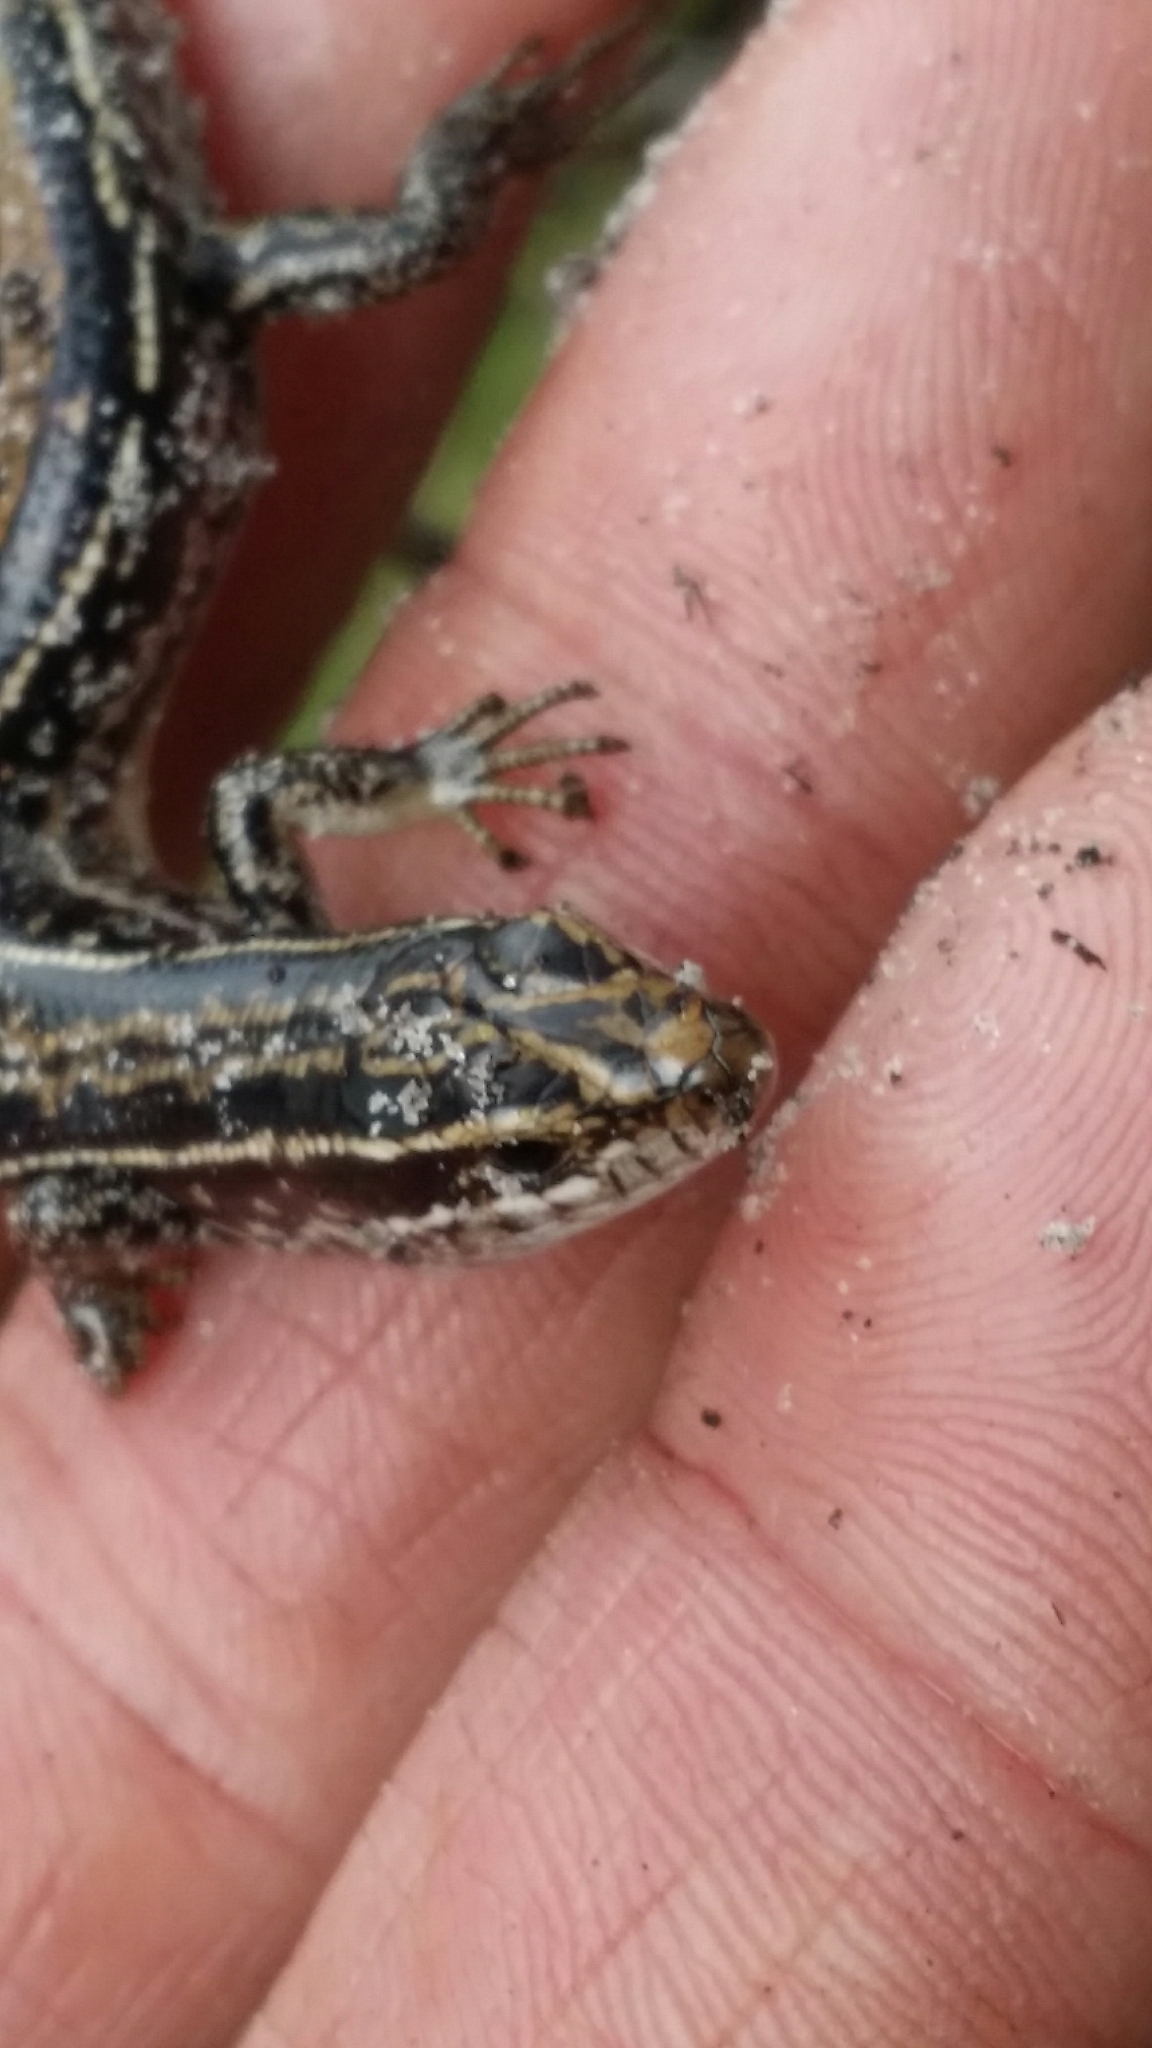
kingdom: Animalia
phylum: Chordata
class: Squamata
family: Scincidae
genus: Ctenotus
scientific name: Ctenotus catenifer
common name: Chain-striped south-west ctenotus
